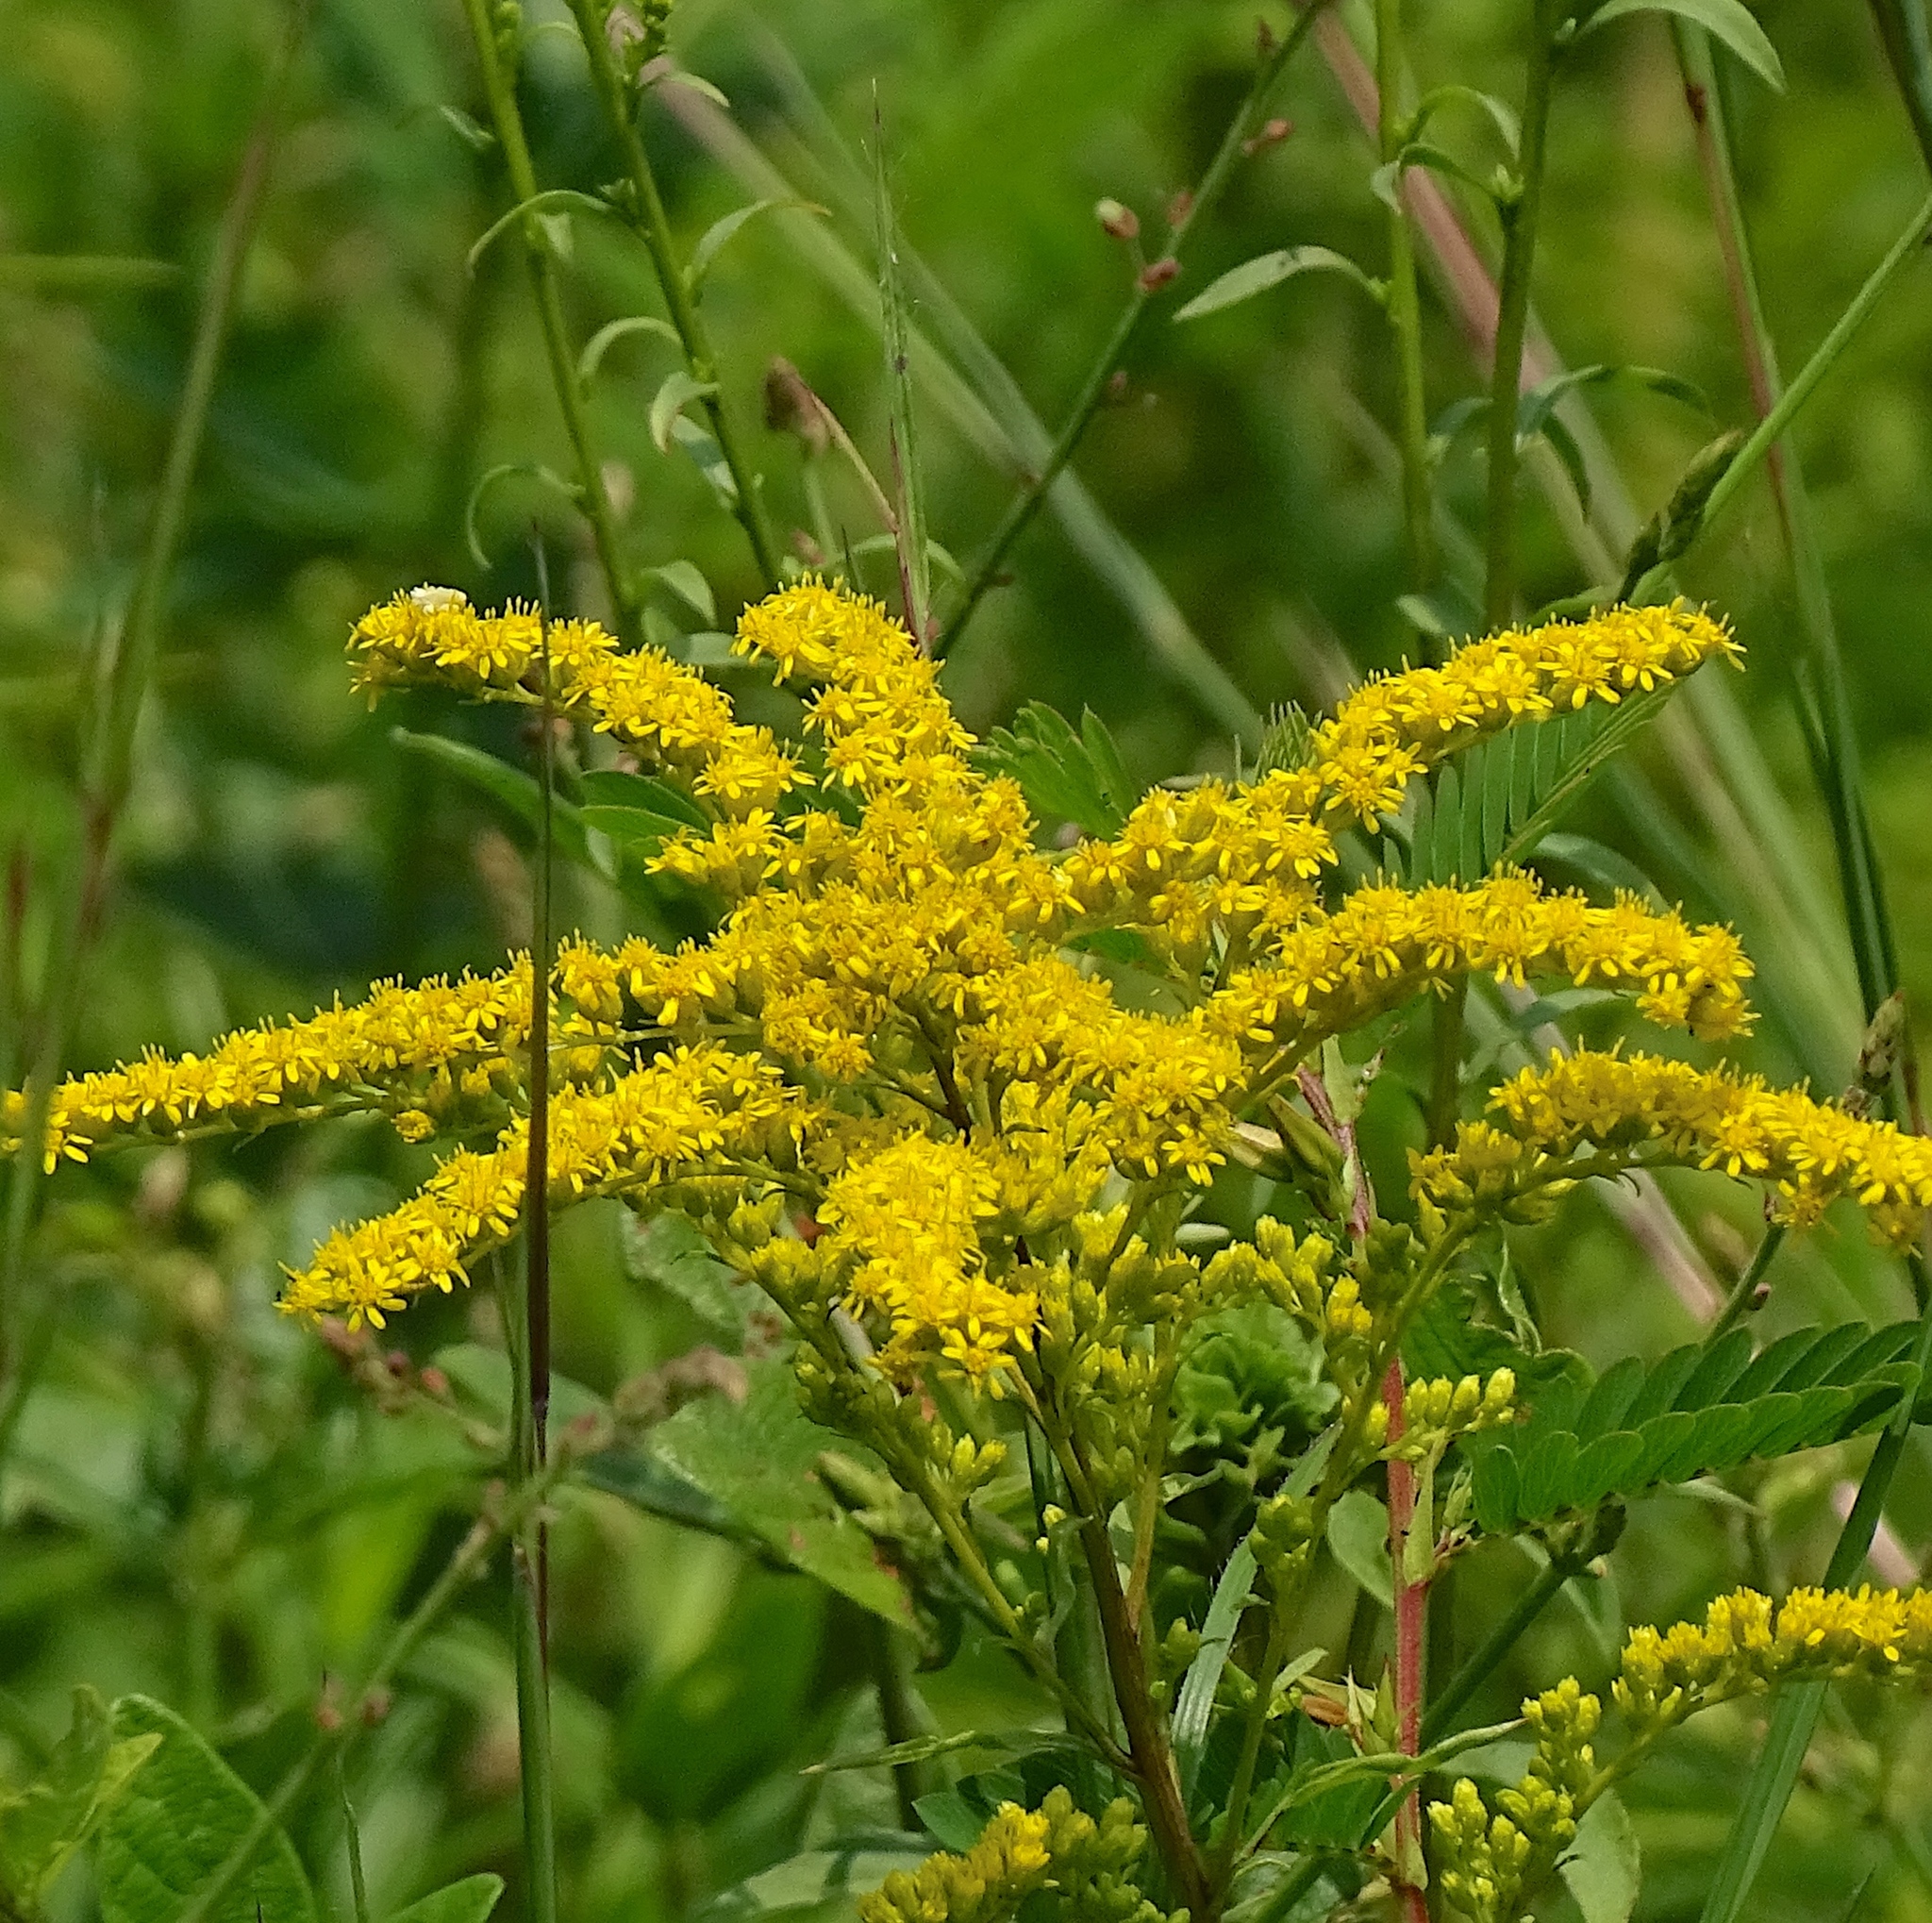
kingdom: Plantae
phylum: Tracheophyta
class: Magnoliopsida
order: Asterales
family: Asteraceae
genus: Solidago
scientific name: Solidago juncea
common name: Early goldenrod
